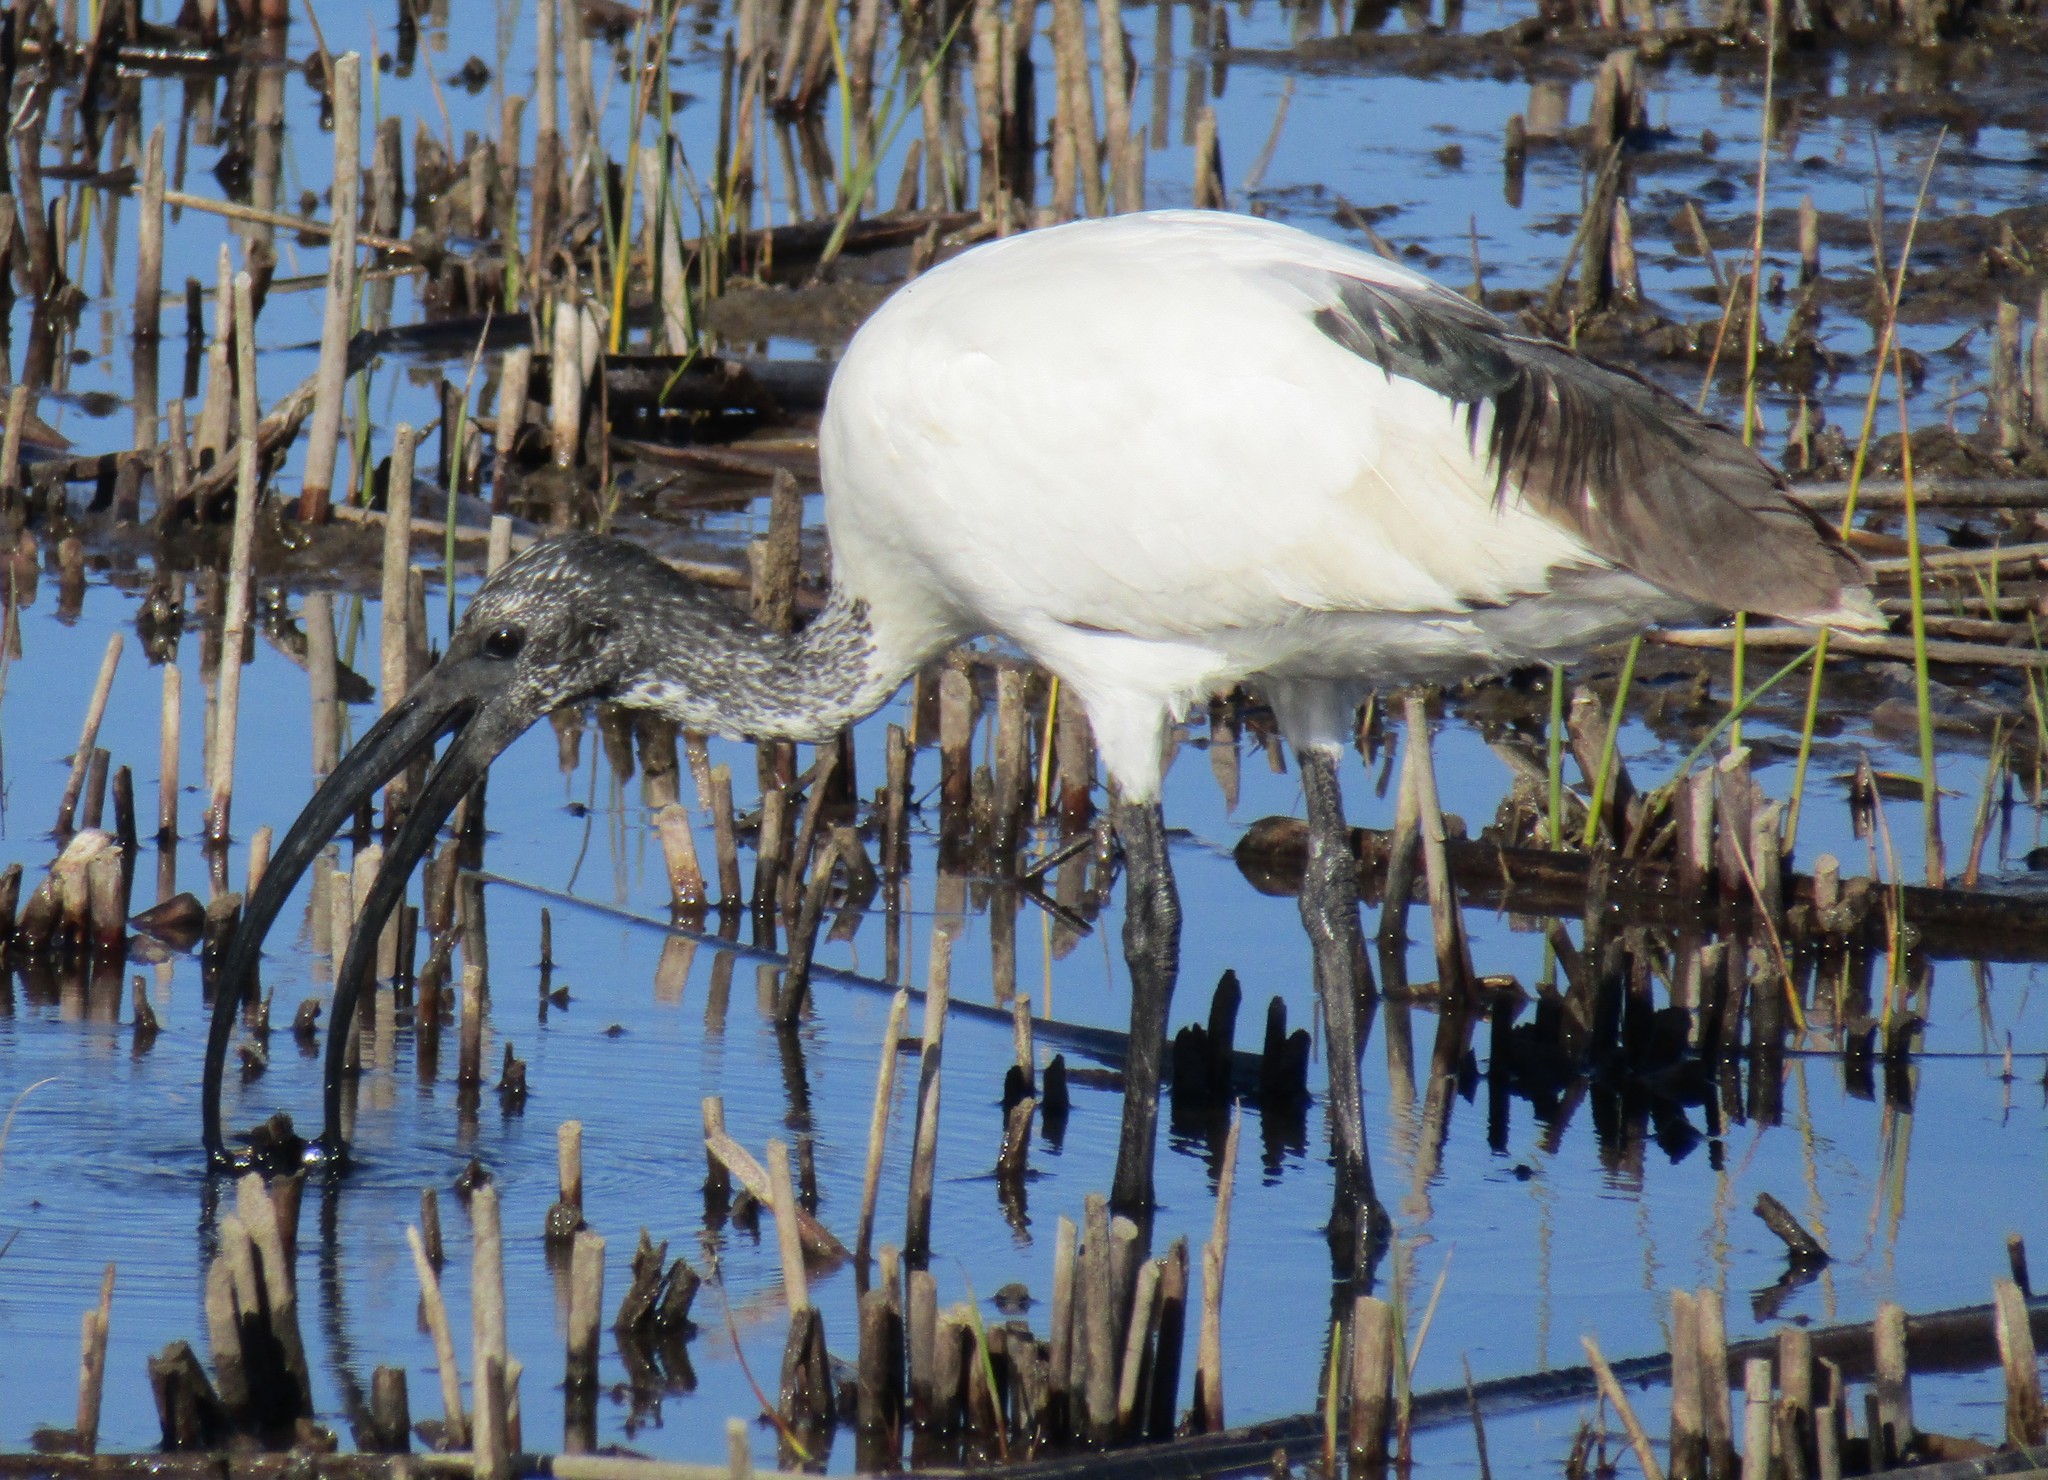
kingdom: Animalia
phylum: Chordata
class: Aves
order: Pelecaniformes
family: Threskiornithidae
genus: Threskiornis
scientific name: Threskiornis aethiopicus
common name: Sacred ibis
